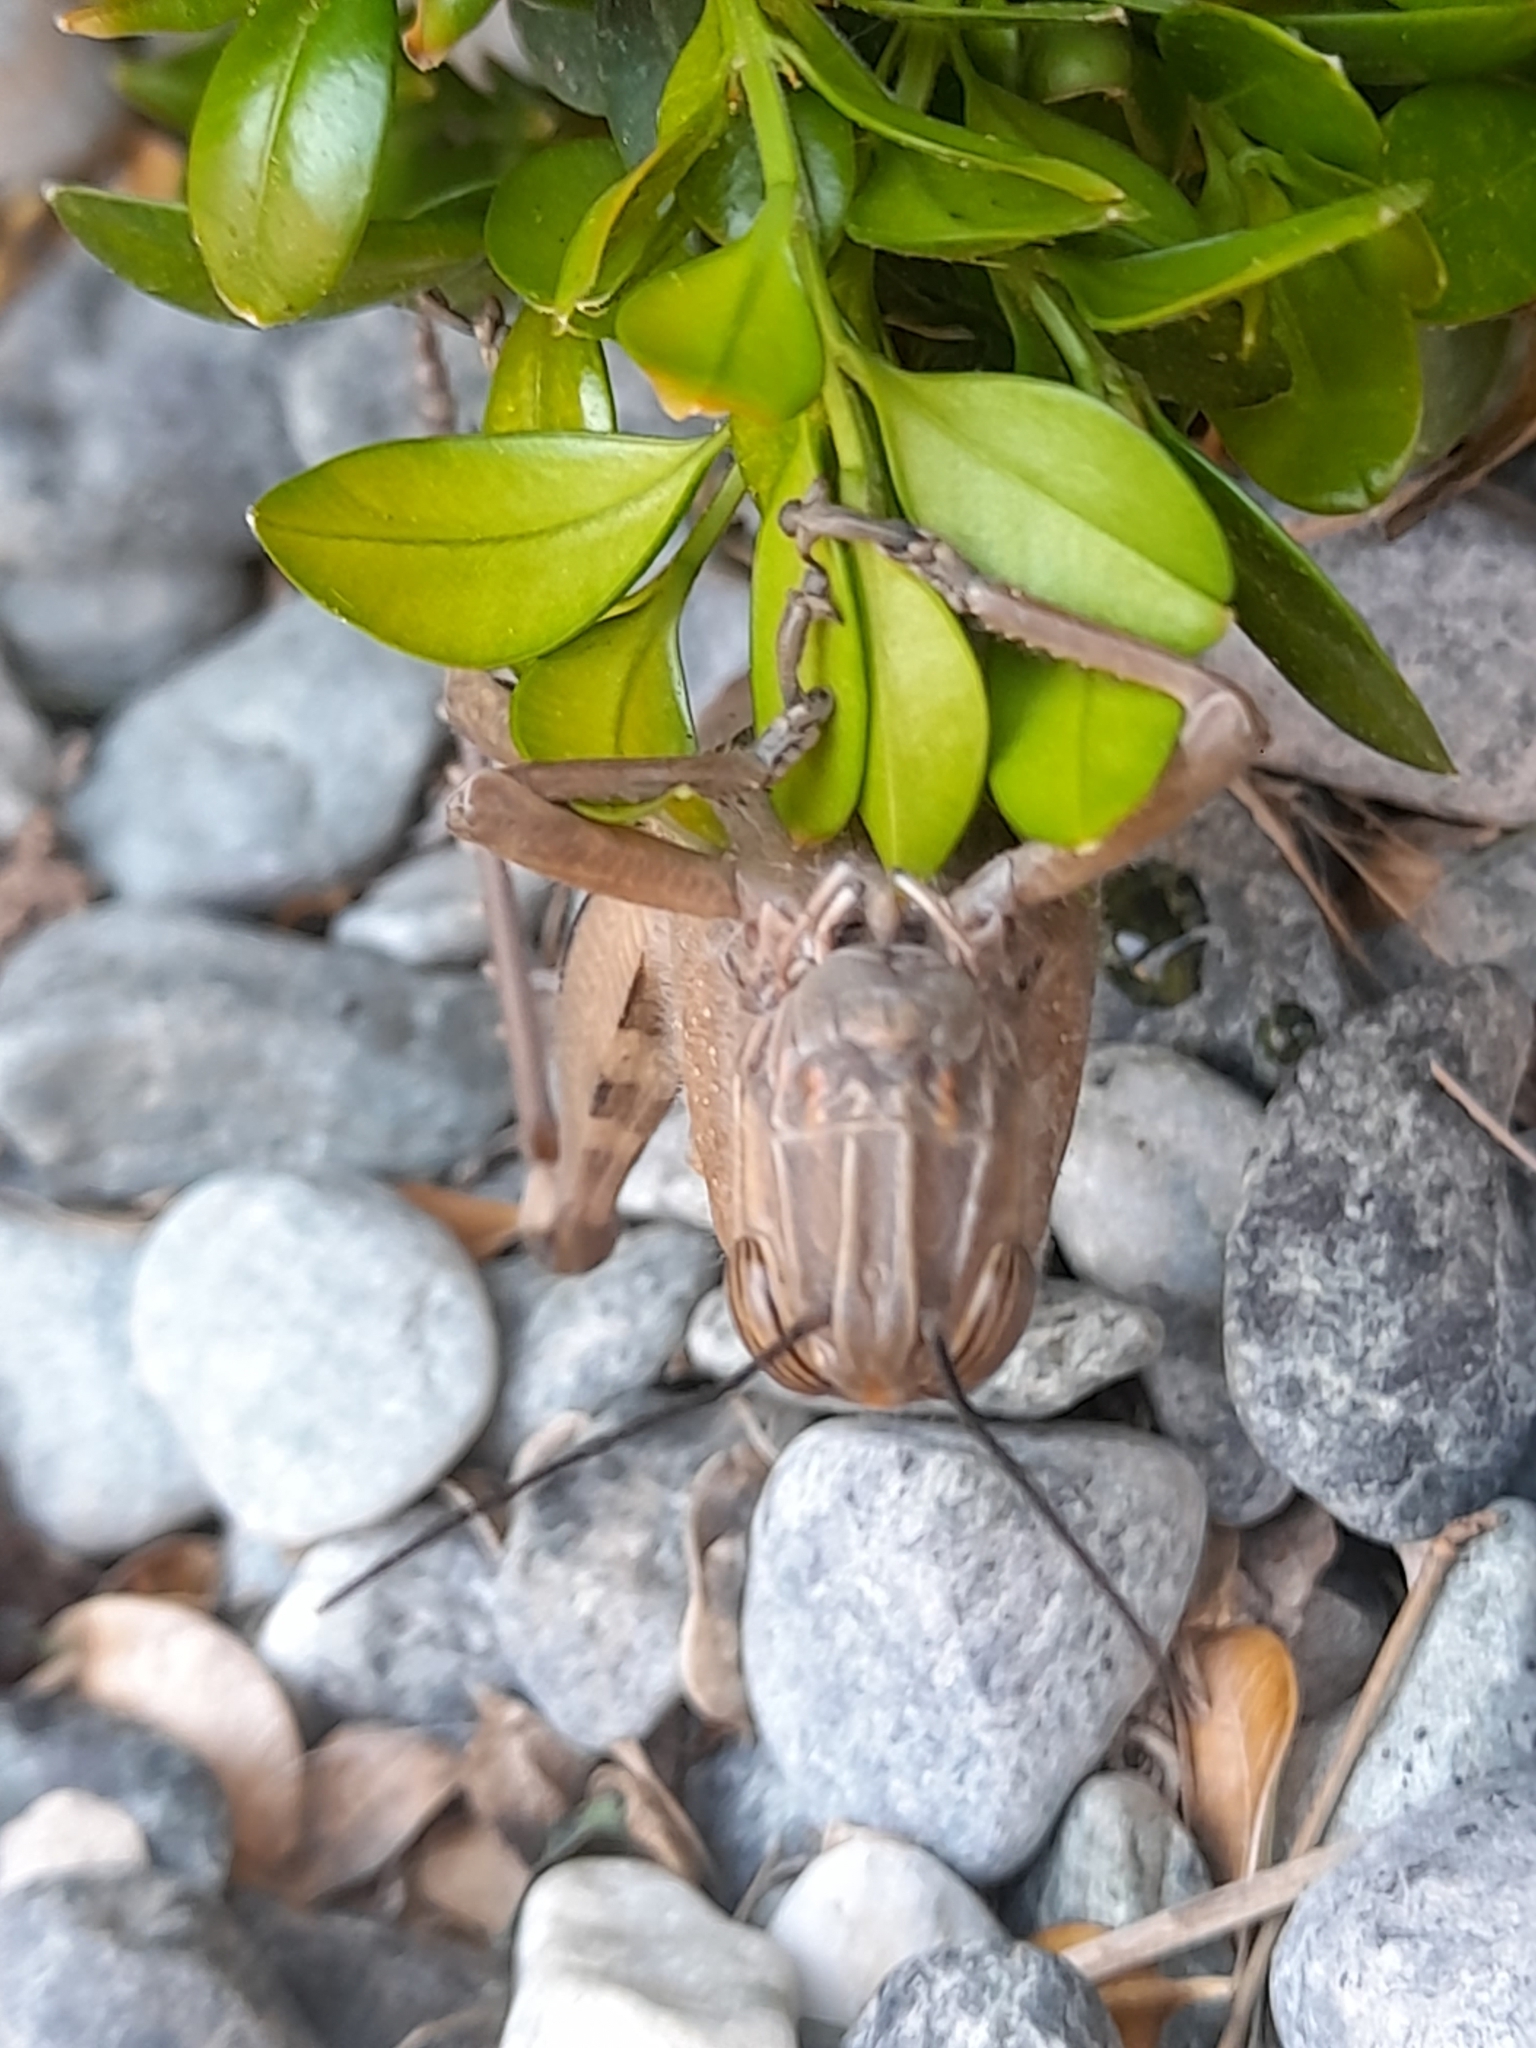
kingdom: Animalia
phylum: Arthropoda
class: Insecta
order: Orthoptera
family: Acrididae
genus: Anacridium
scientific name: Anacridium aegyptium
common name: Egyptian grasshopper
